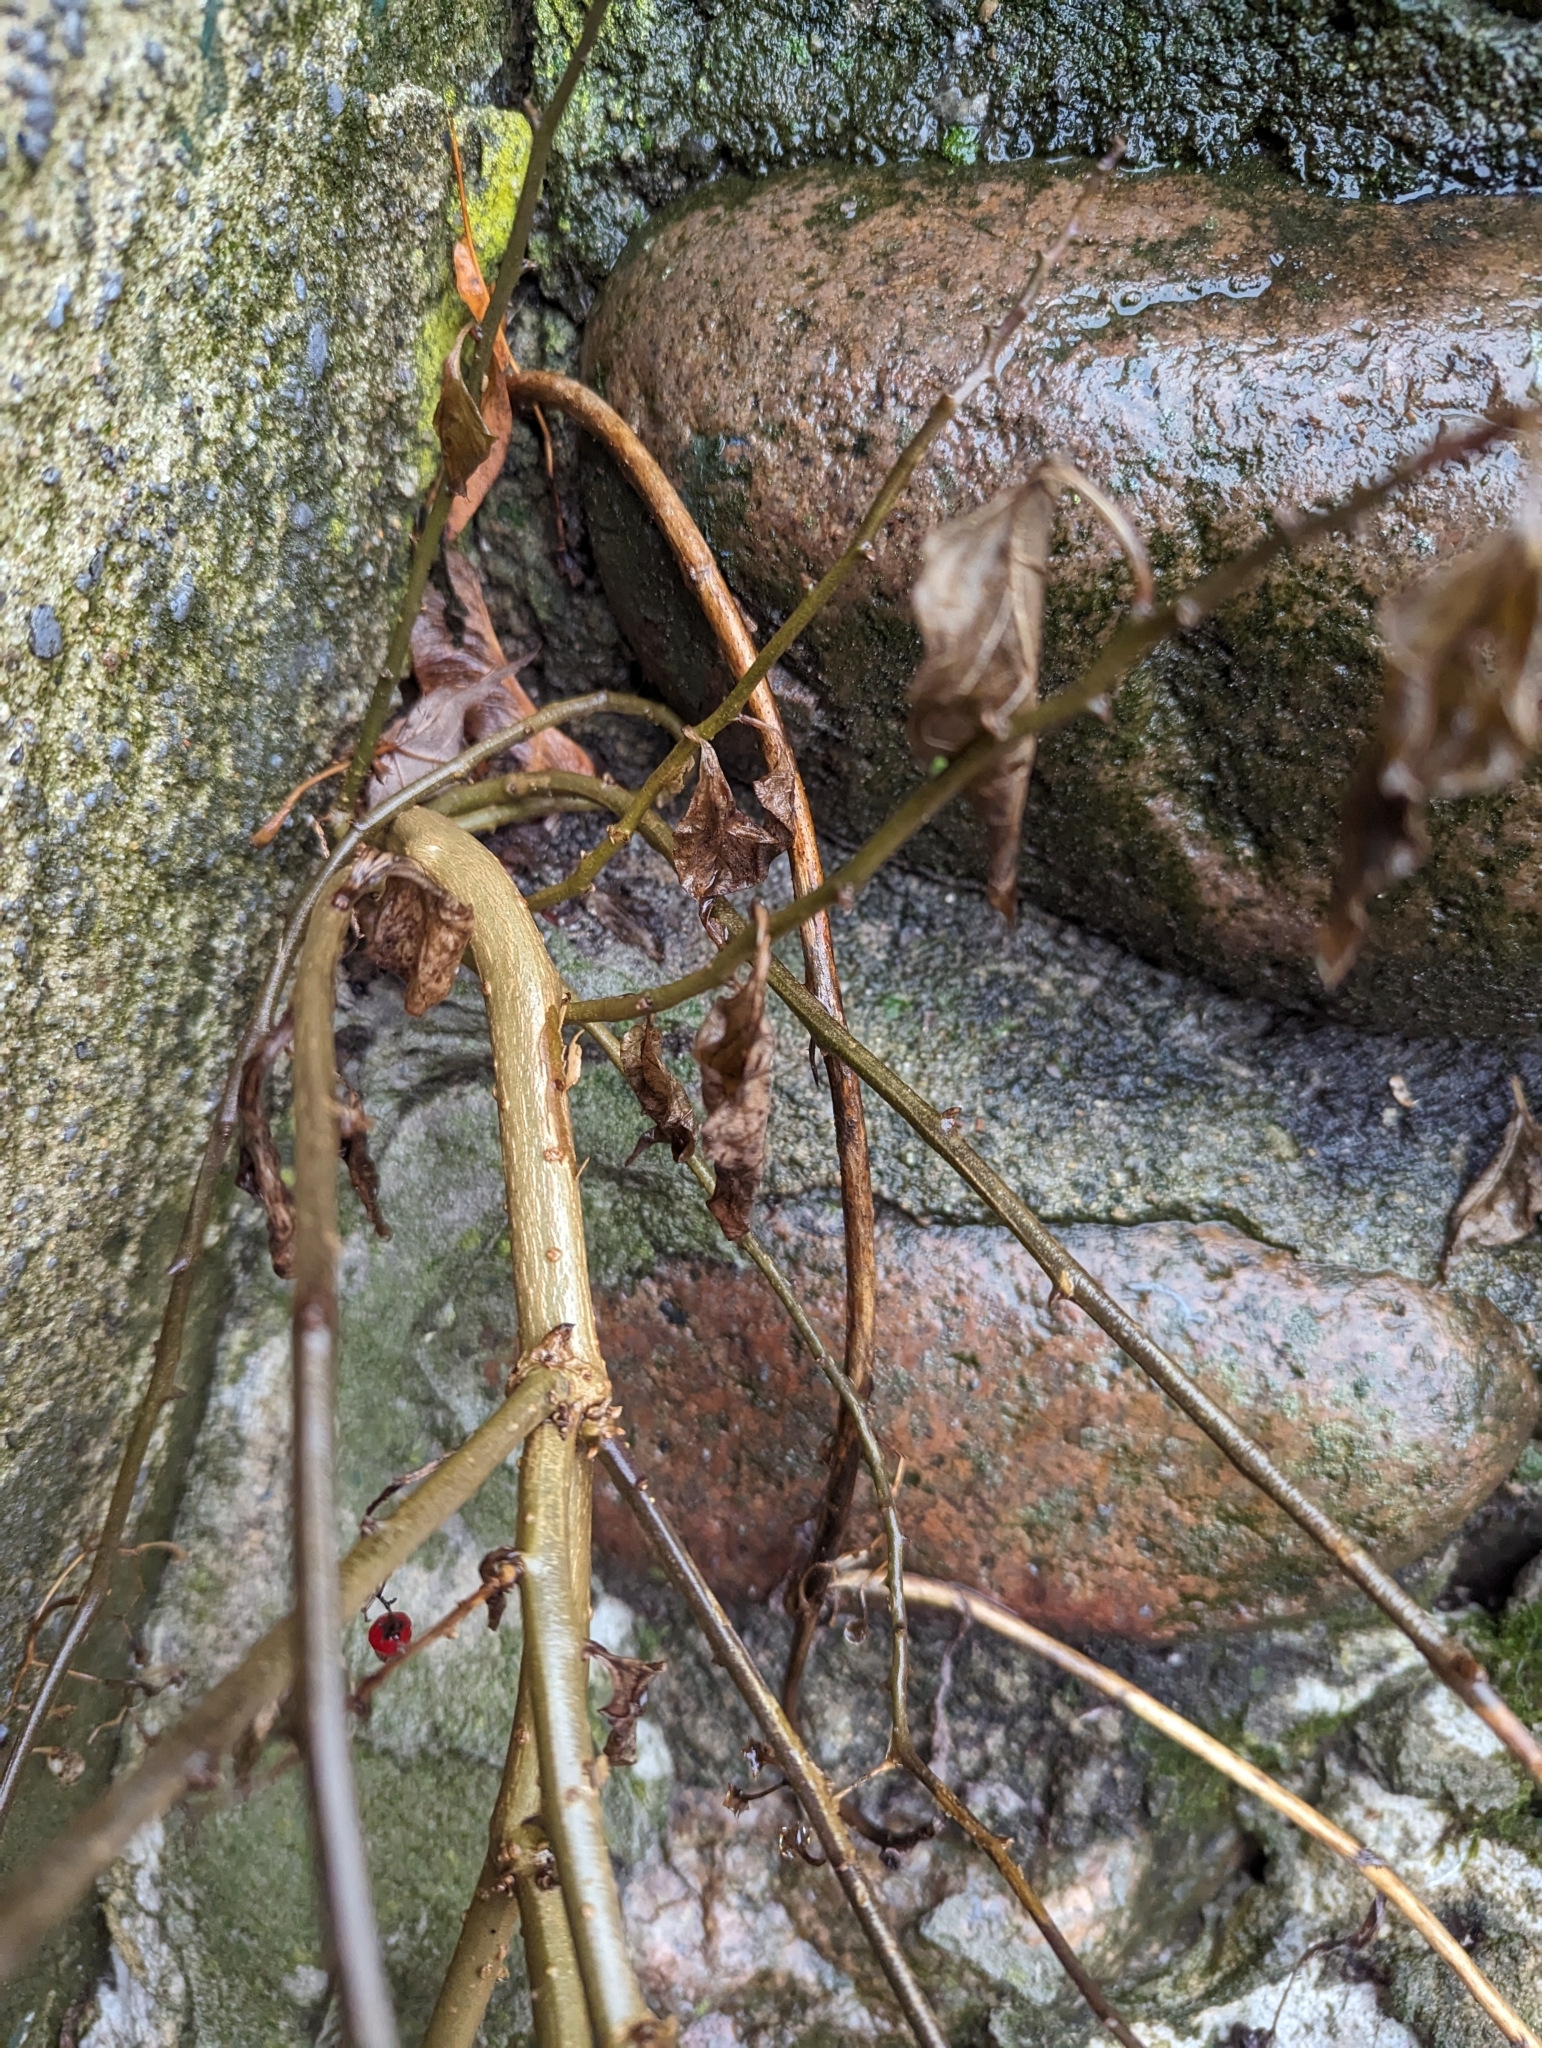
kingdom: Plantae
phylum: Tracheophyta
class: Magnoliopsida
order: Solanales
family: Solanaceae
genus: Solanum
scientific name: Solanum dulcamara
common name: Climbing nightshade
